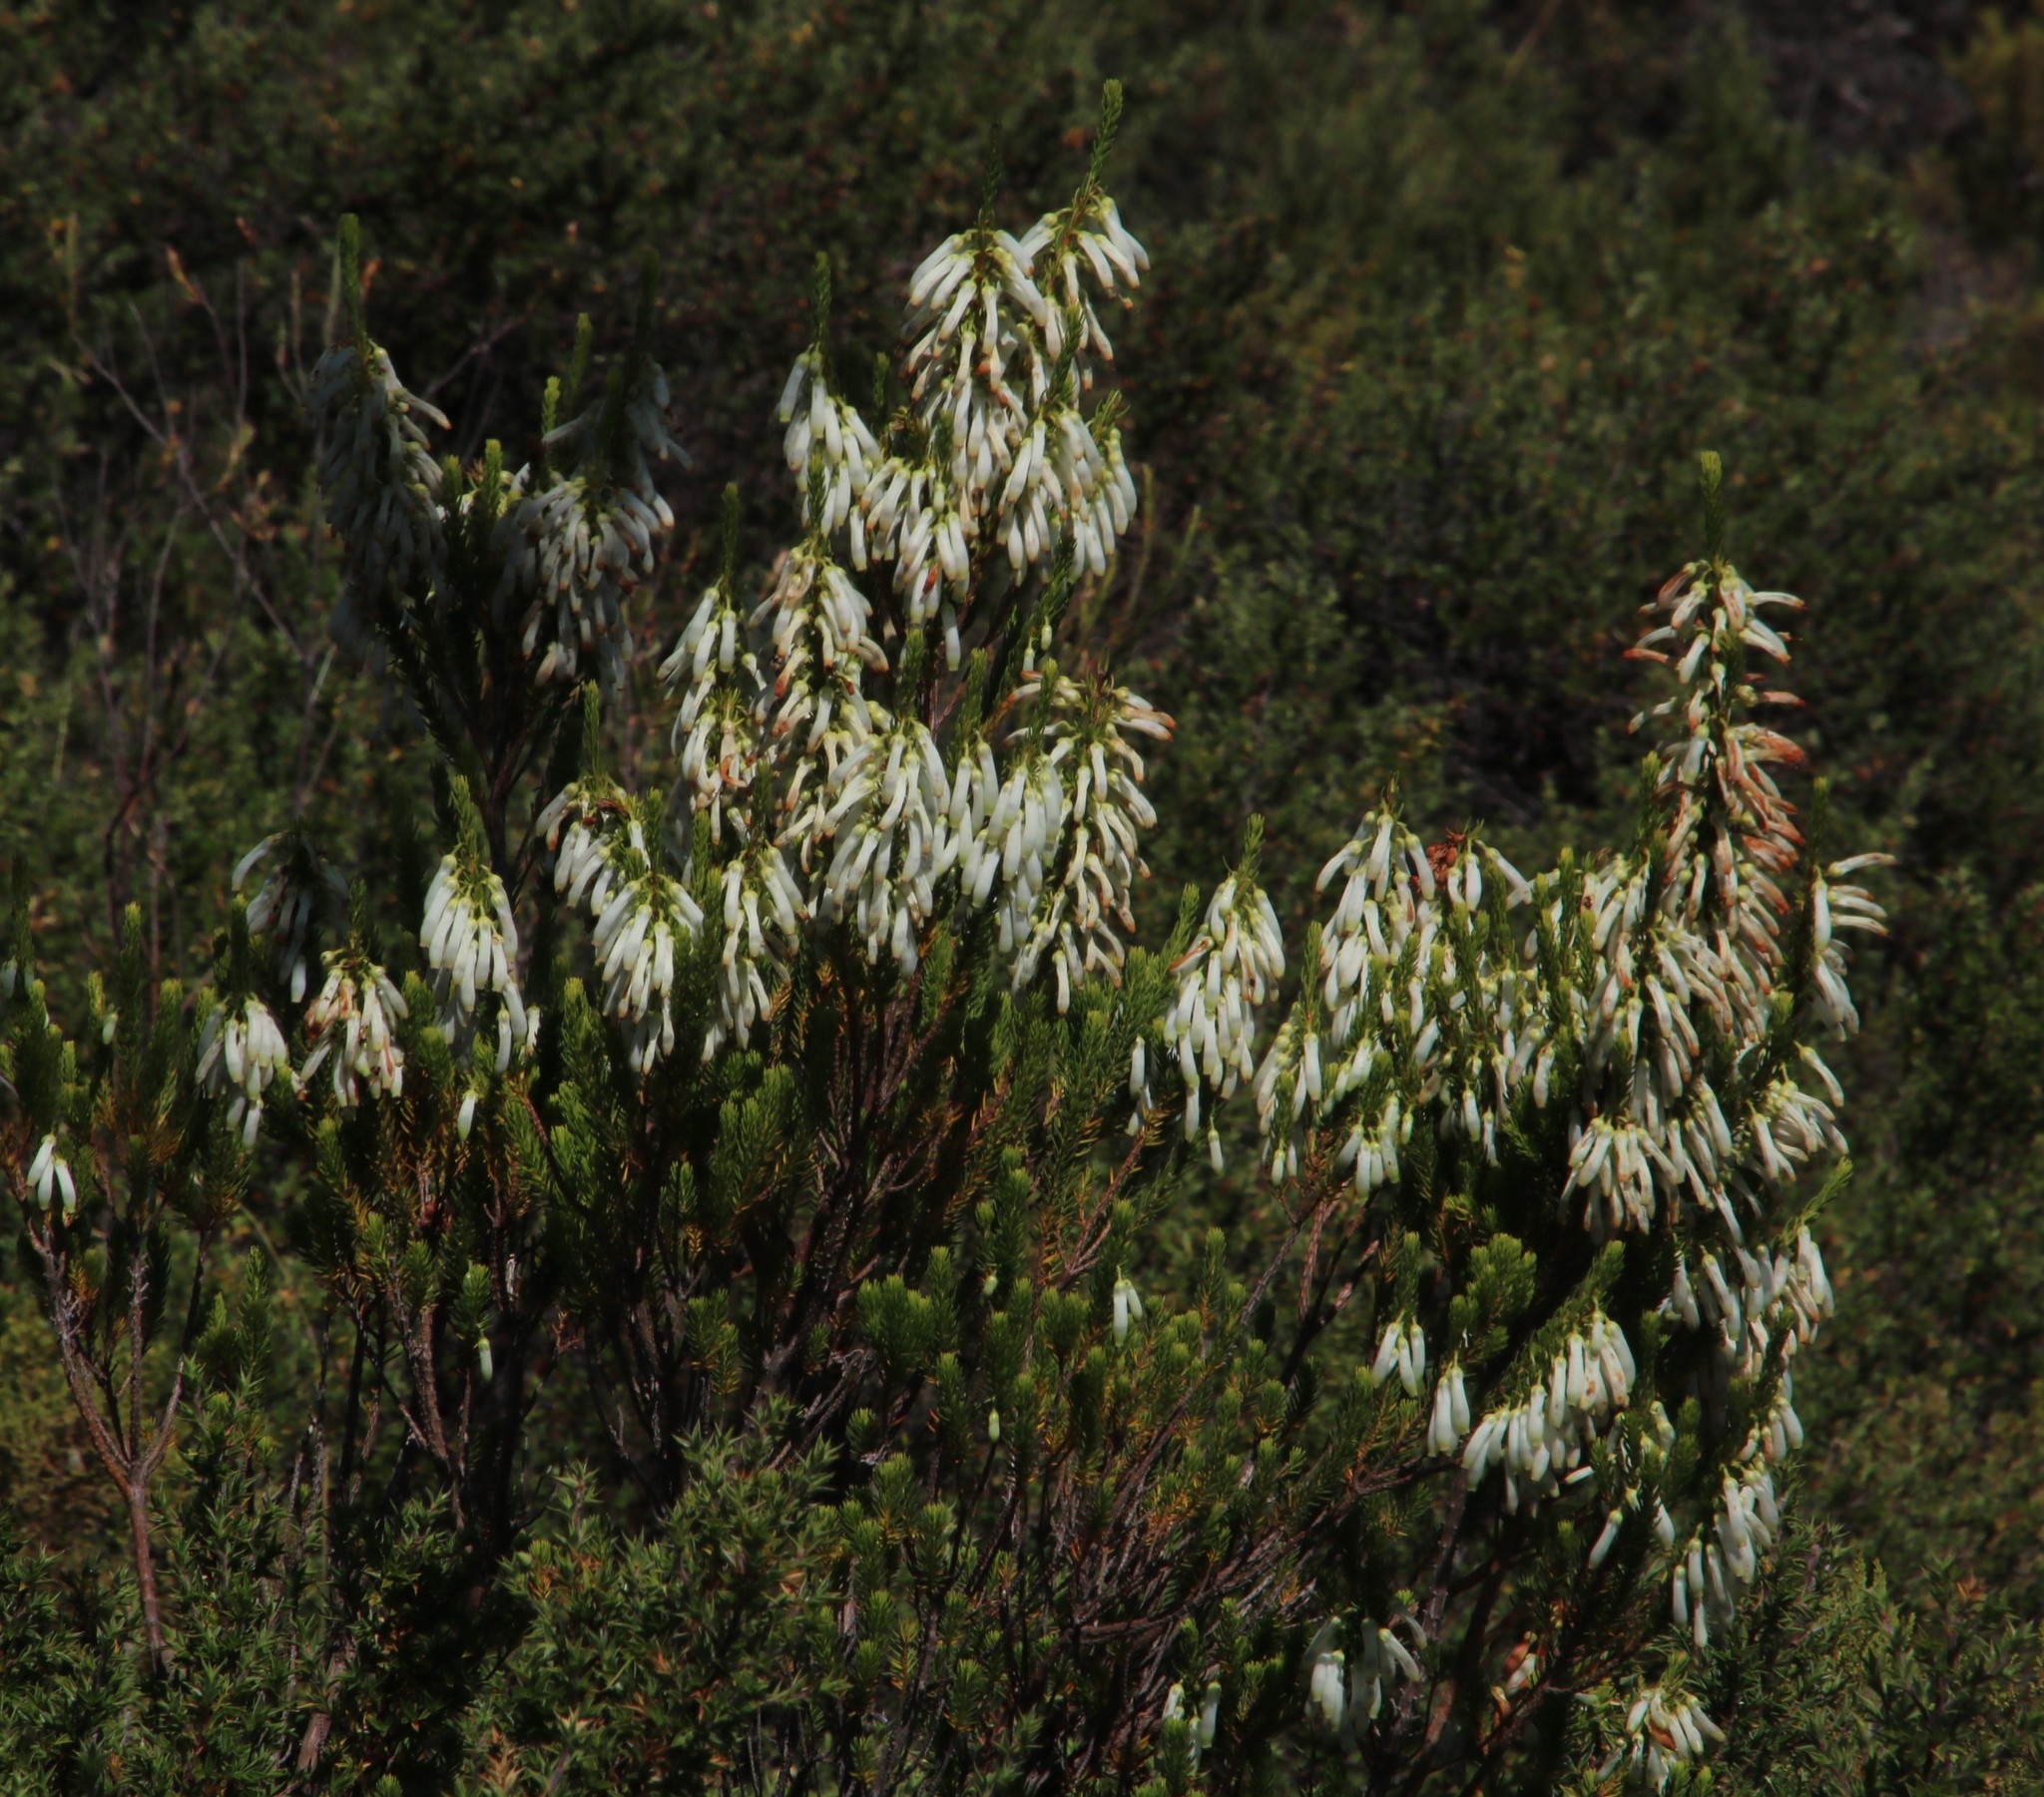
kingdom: Plantae
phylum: Tracheophyta
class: Magnoliopsida
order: Ericales
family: Ericaceae
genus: Erica
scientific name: Erica mammosa
